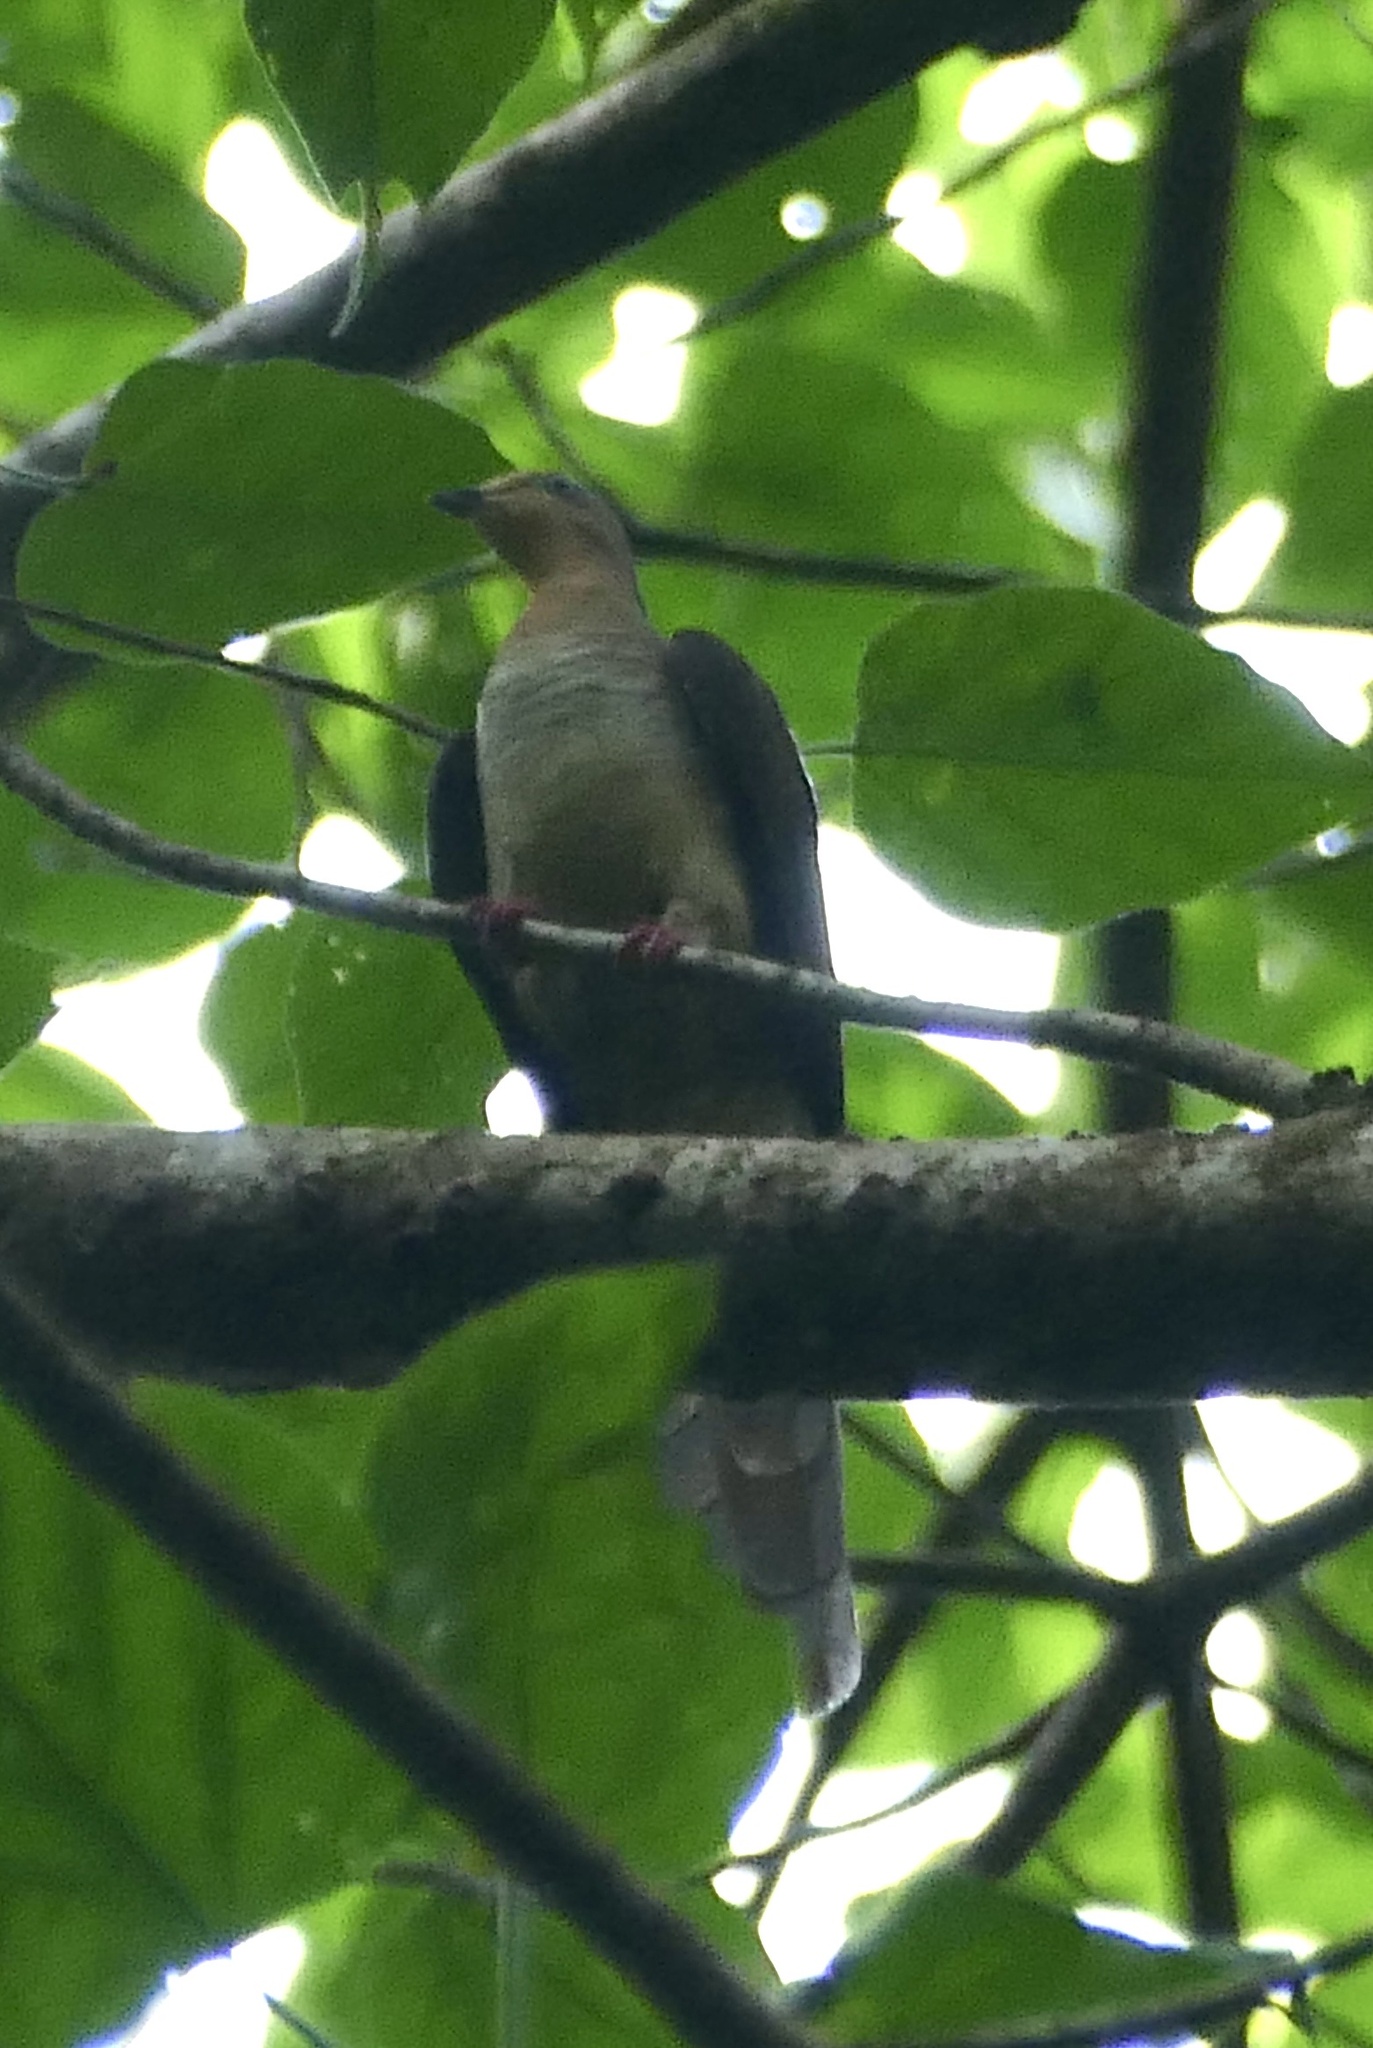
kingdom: Animalia
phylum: Chordata
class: Aves
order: Columbiformes
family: Columbidae
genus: Macropygia
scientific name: Macropygia doreya
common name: Sultan's cuckoo-dove
